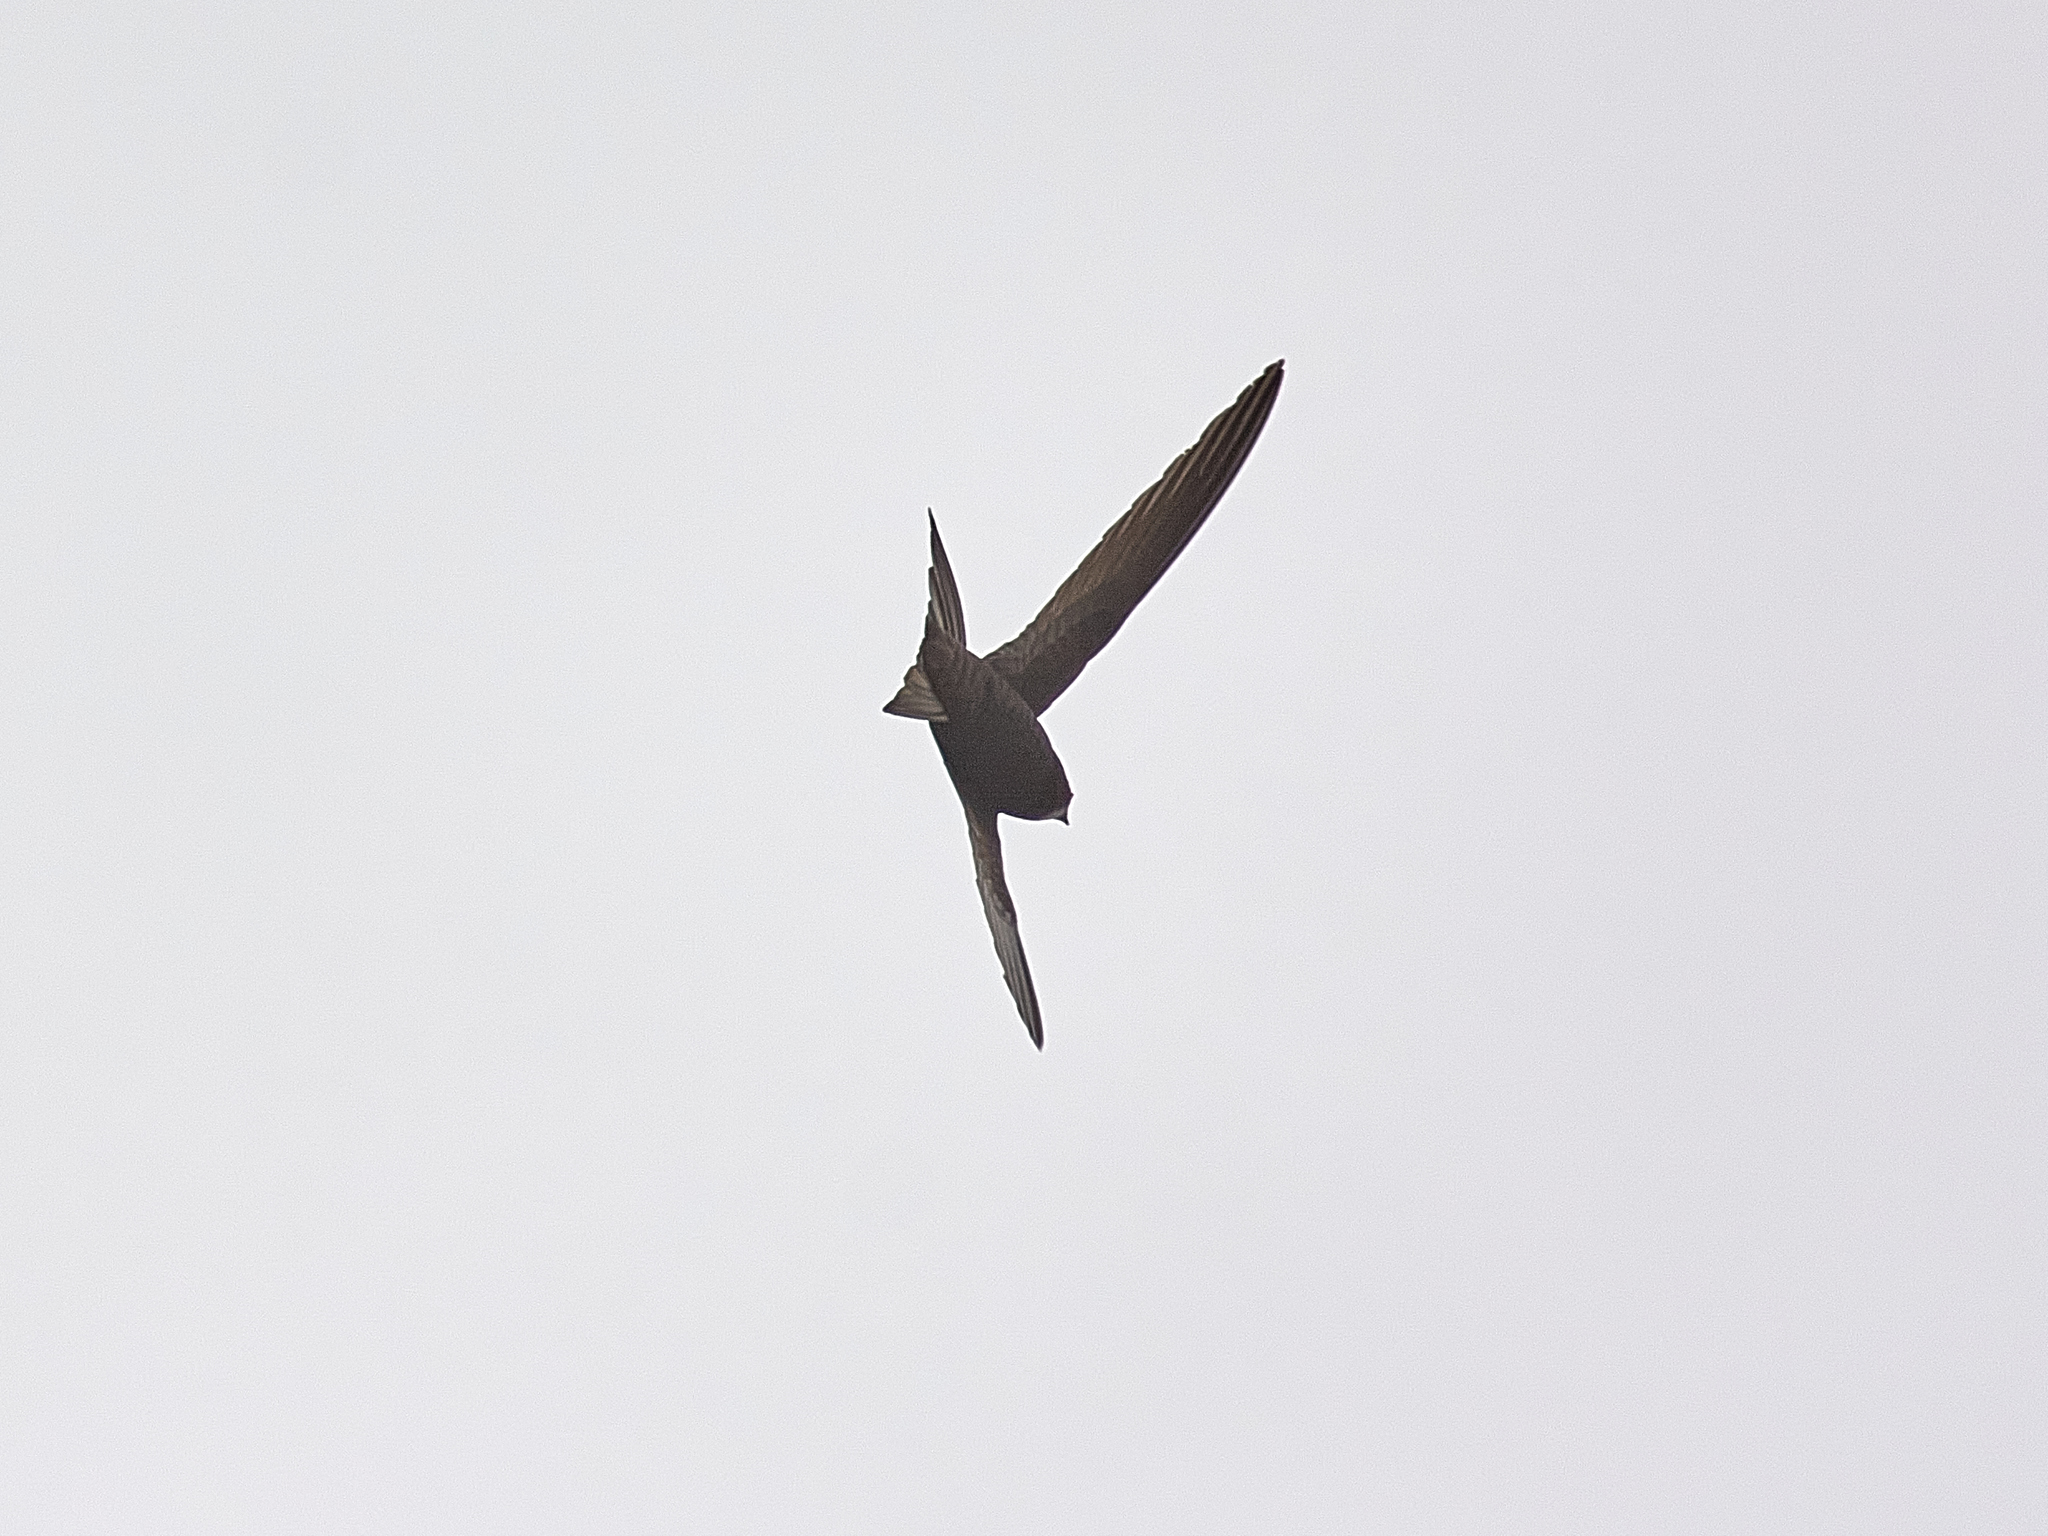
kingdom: Animalia
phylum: Chordata
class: Aves
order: Apodiformes
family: Apodidae
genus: Apus
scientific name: Apus apus
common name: Common swift
